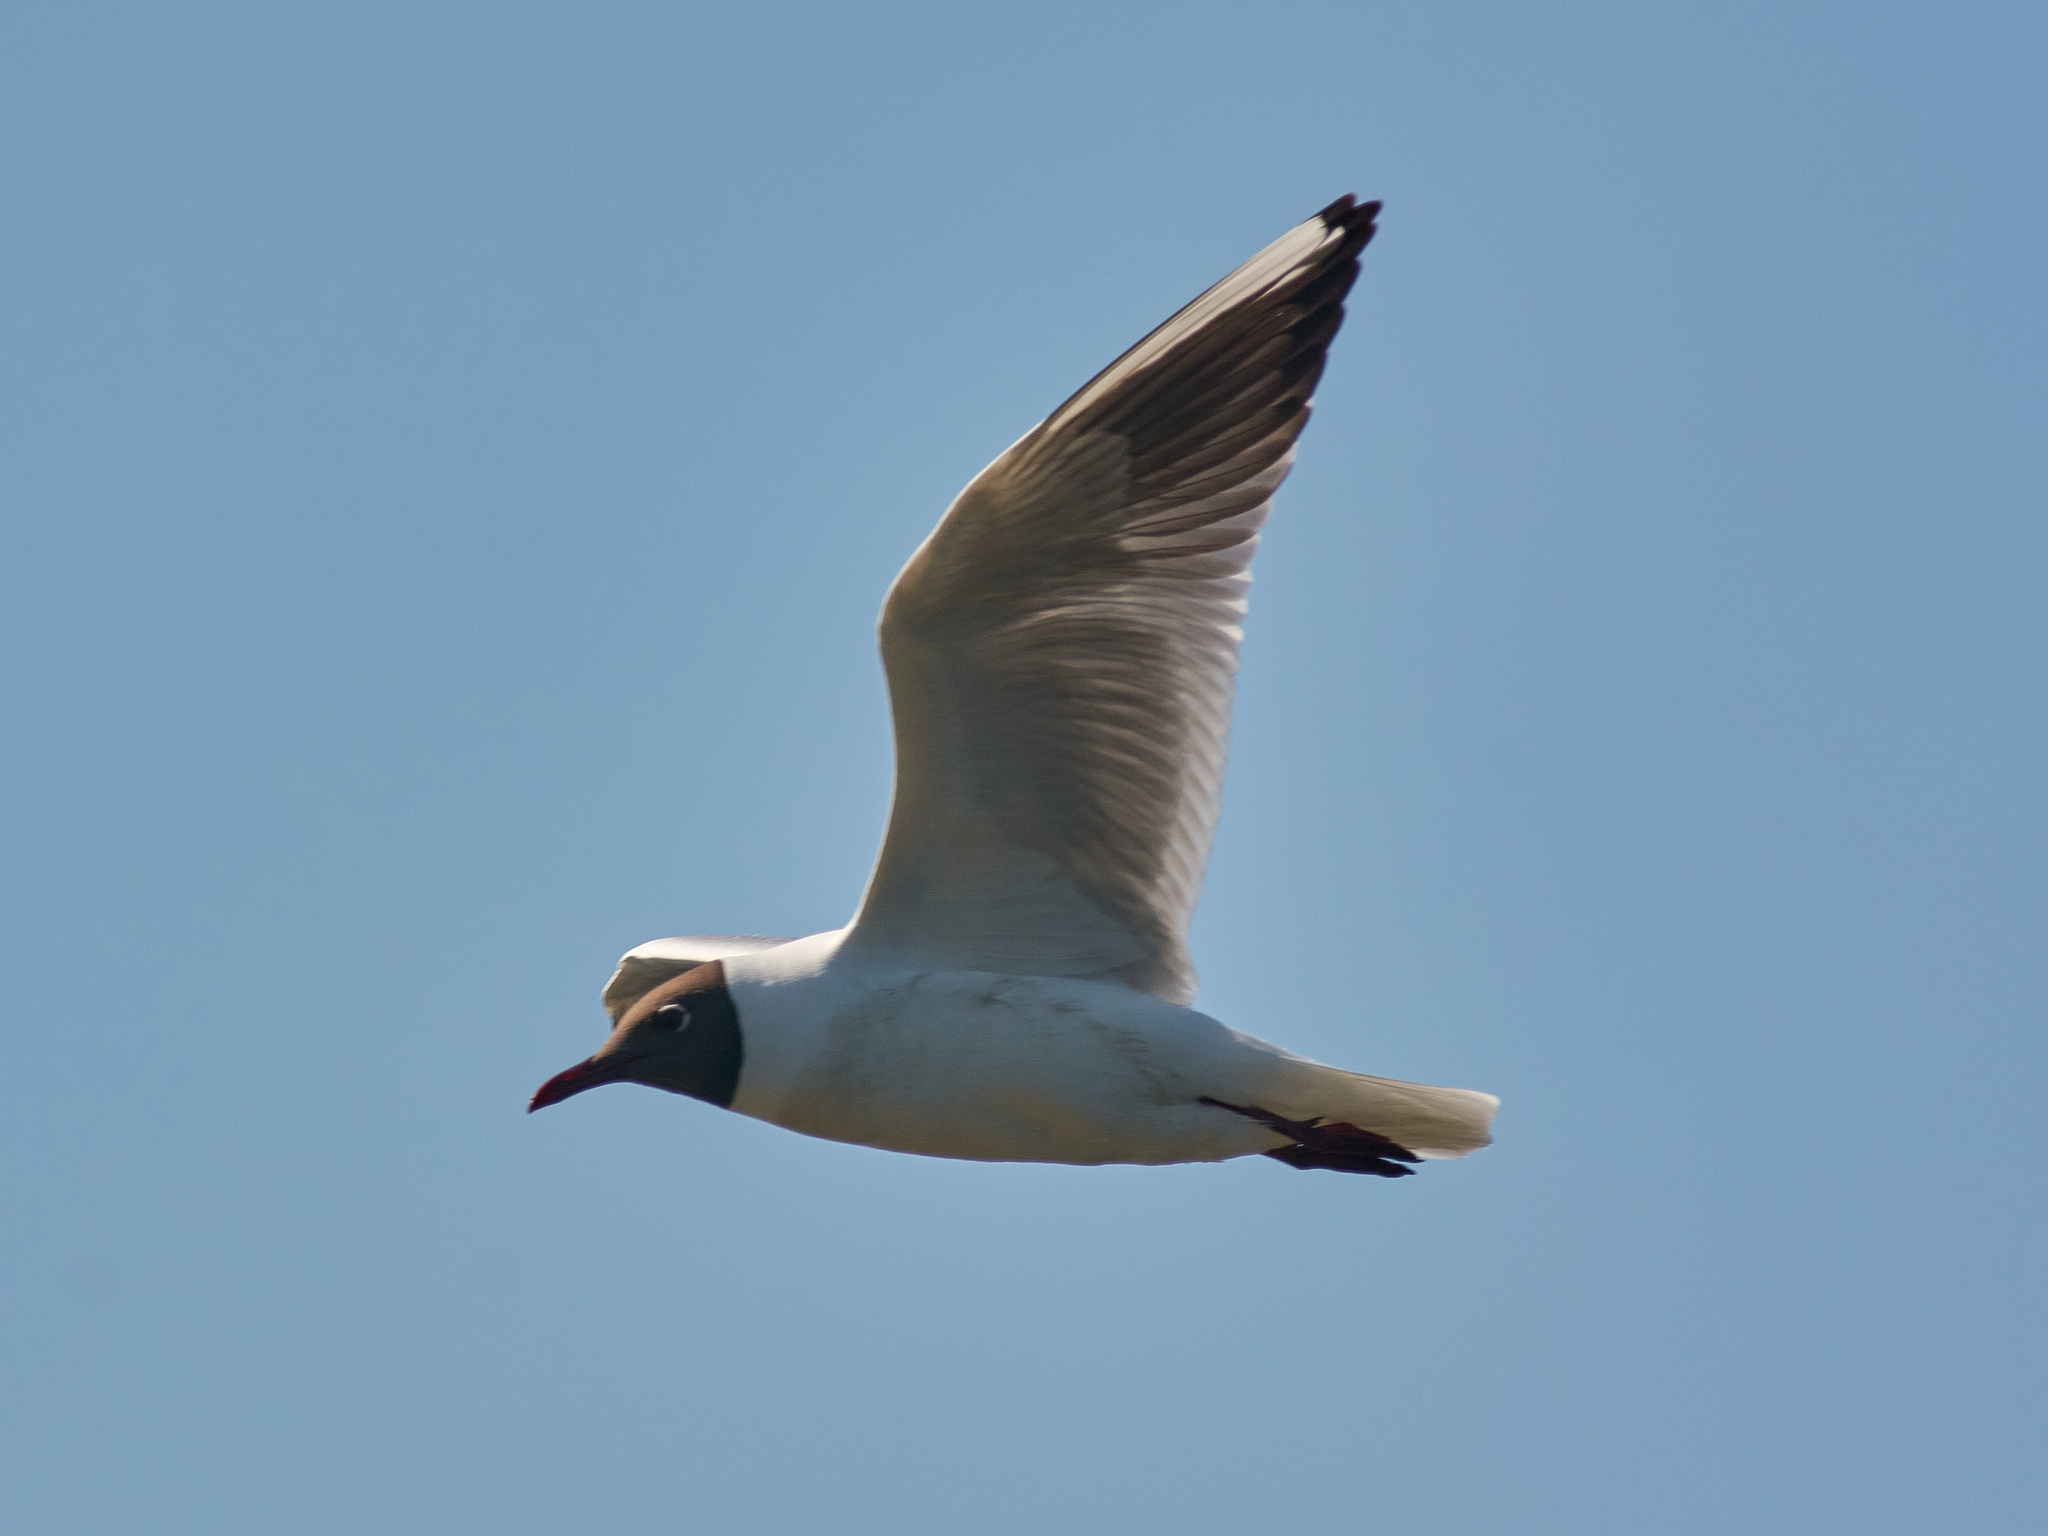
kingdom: Animalia
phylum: Chordata
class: Aves
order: Charadriiformes
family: Laridae
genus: Chroicocephalus
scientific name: Chroicocephalus ridibundus
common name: Black-headed gull
